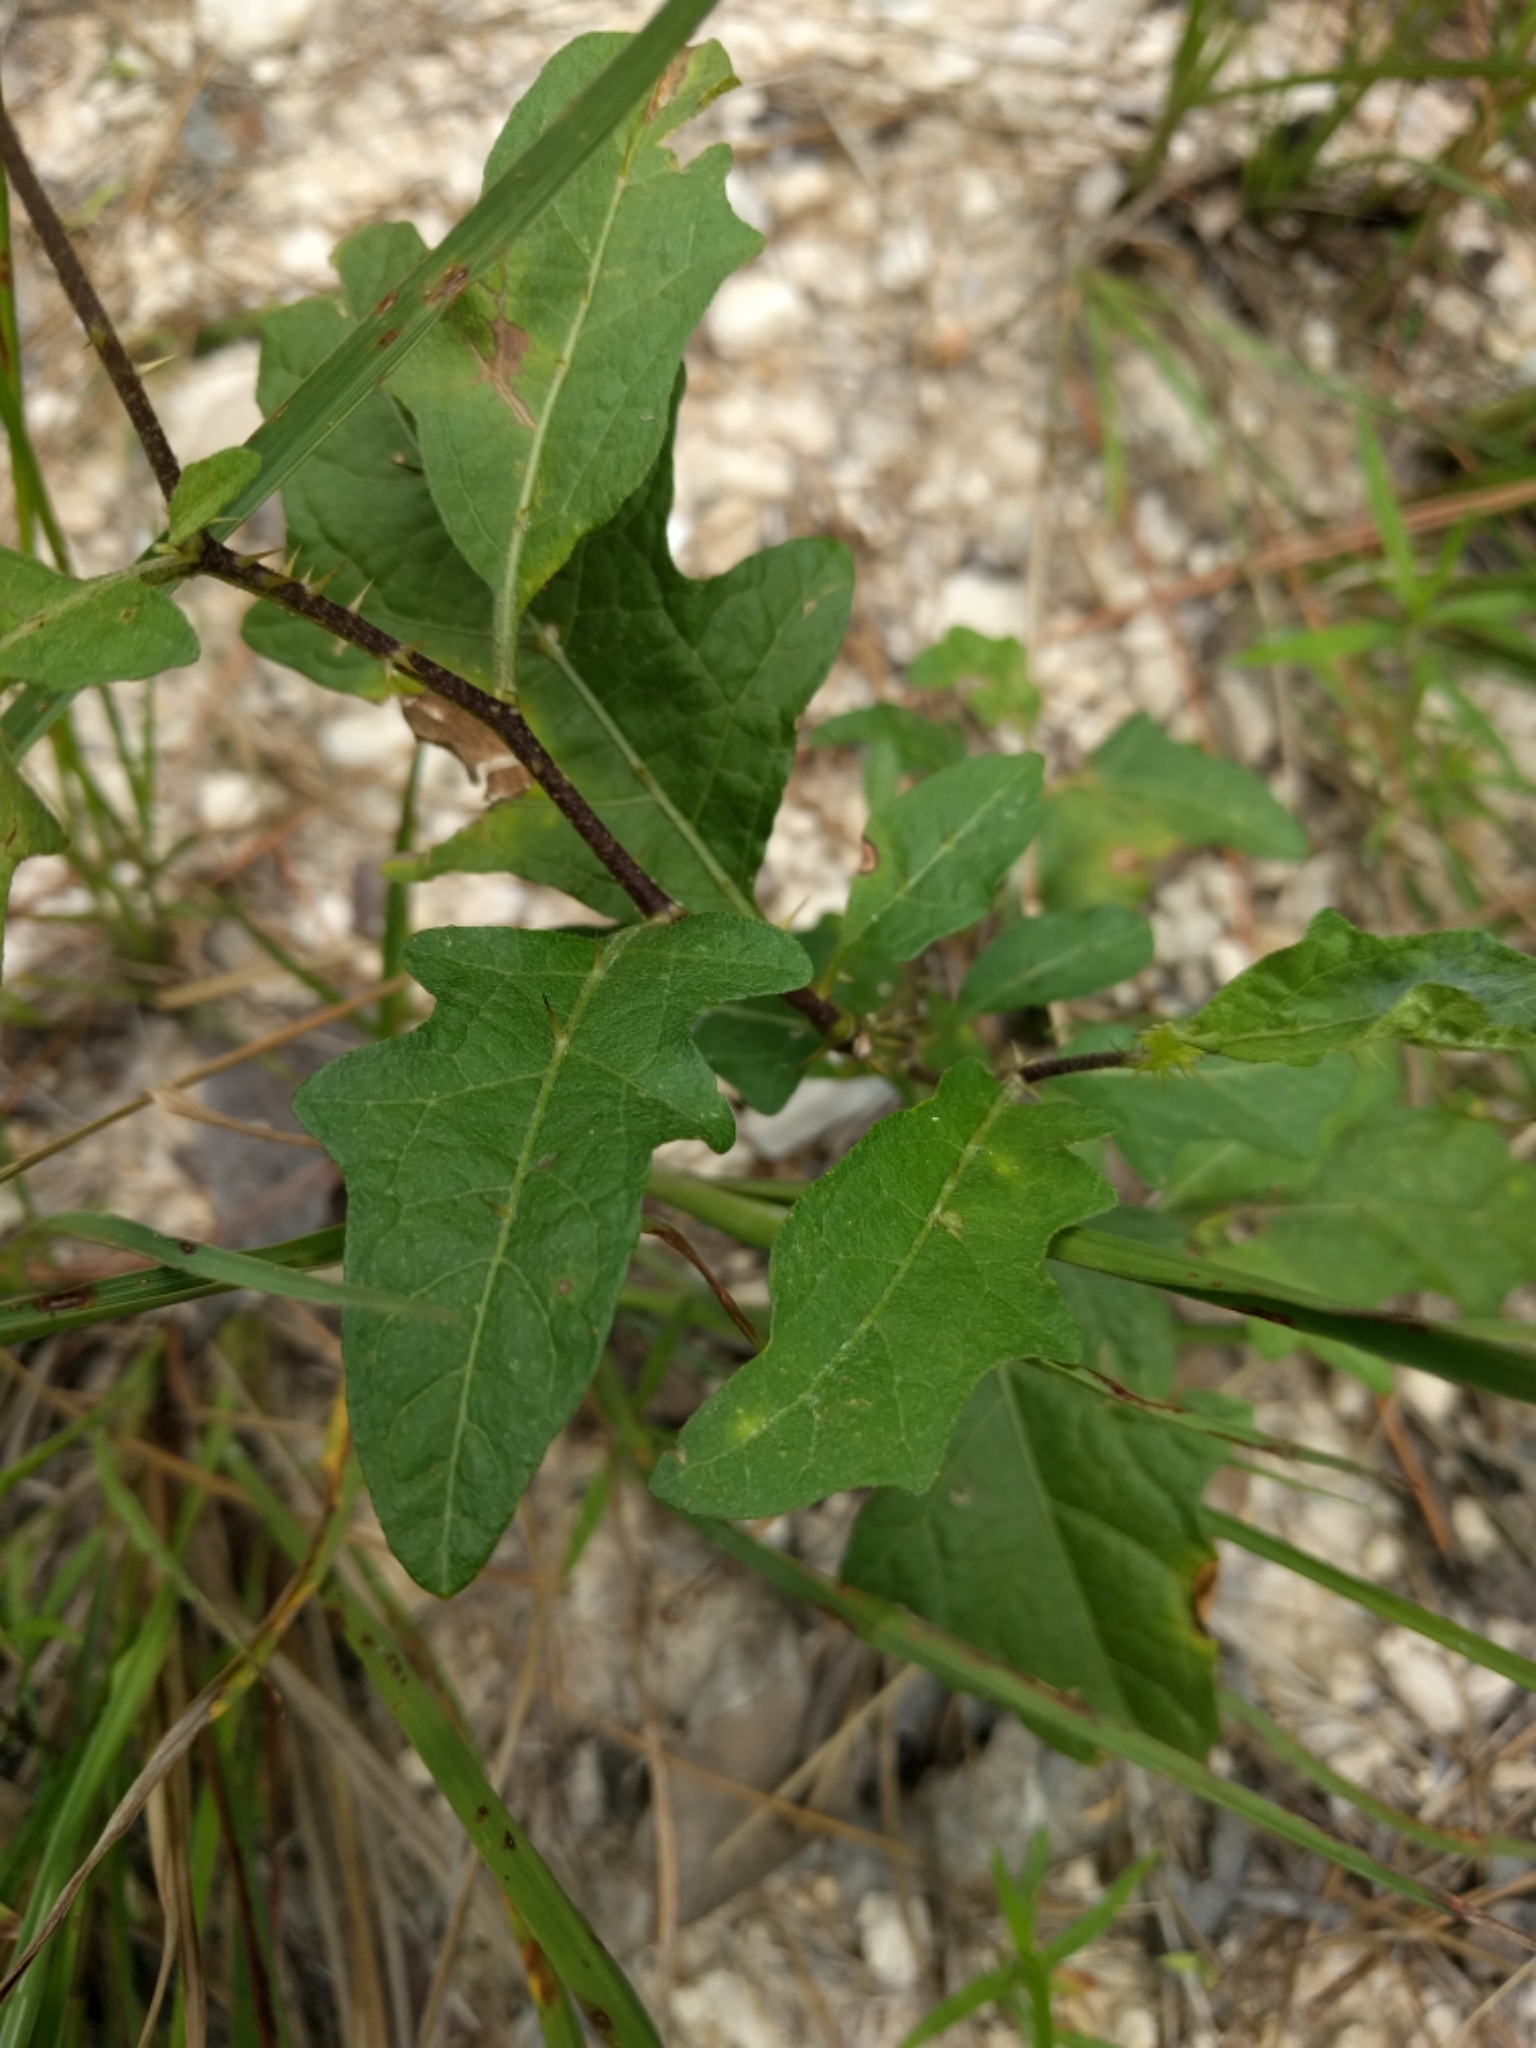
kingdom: Plantae
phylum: Tracheophyta
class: Magnoliopsida
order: Solanales
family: Solanaceae
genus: Solanum
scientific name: Solanum carolinense
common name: Horse-nettle
